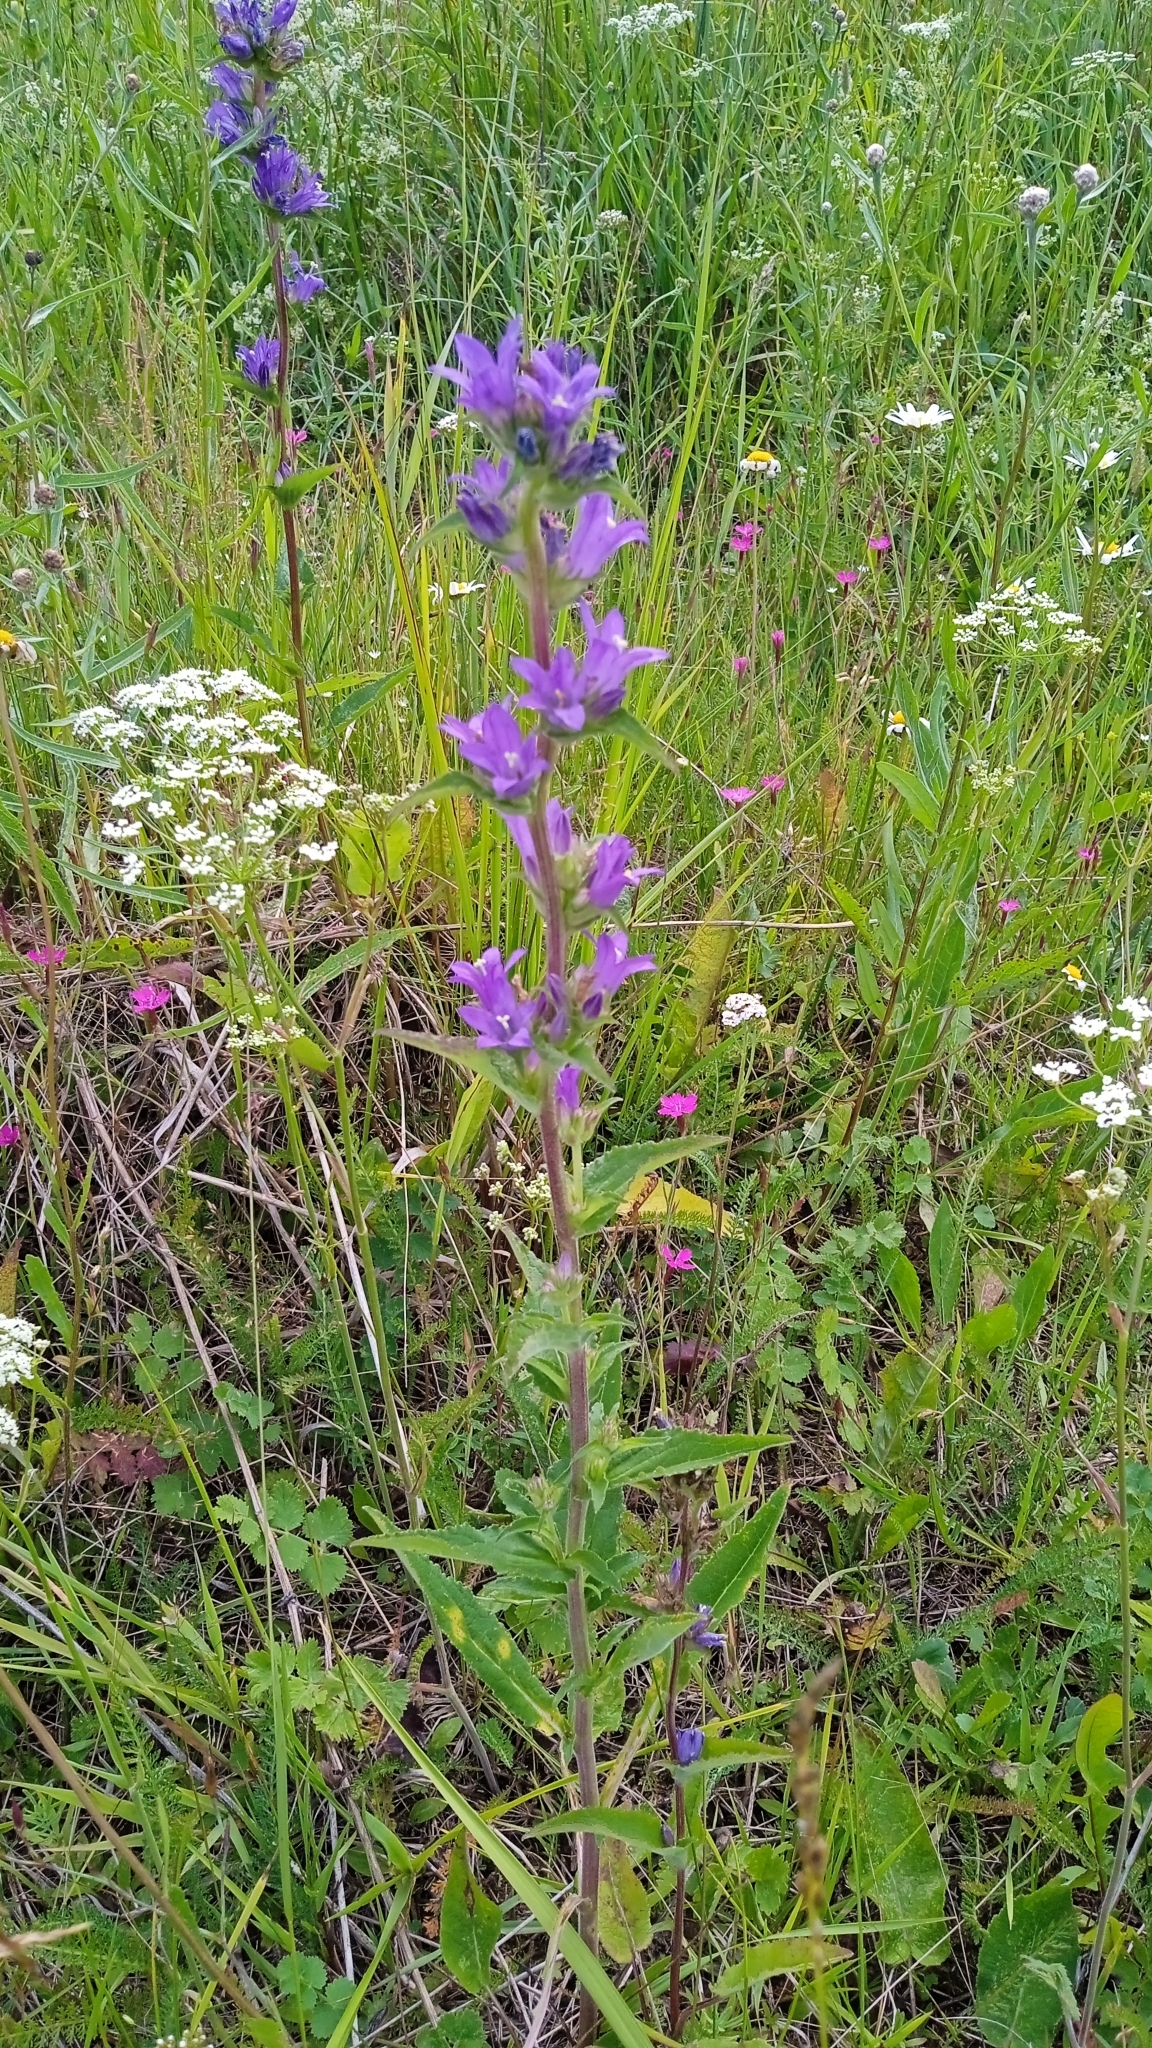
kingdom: Plantae
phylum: Tracheophyta
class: Magnoliopsida
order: Asterales
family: Campanulaceae
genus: Campanula
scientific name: Campanula glomerata
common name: Clustered bellflower
